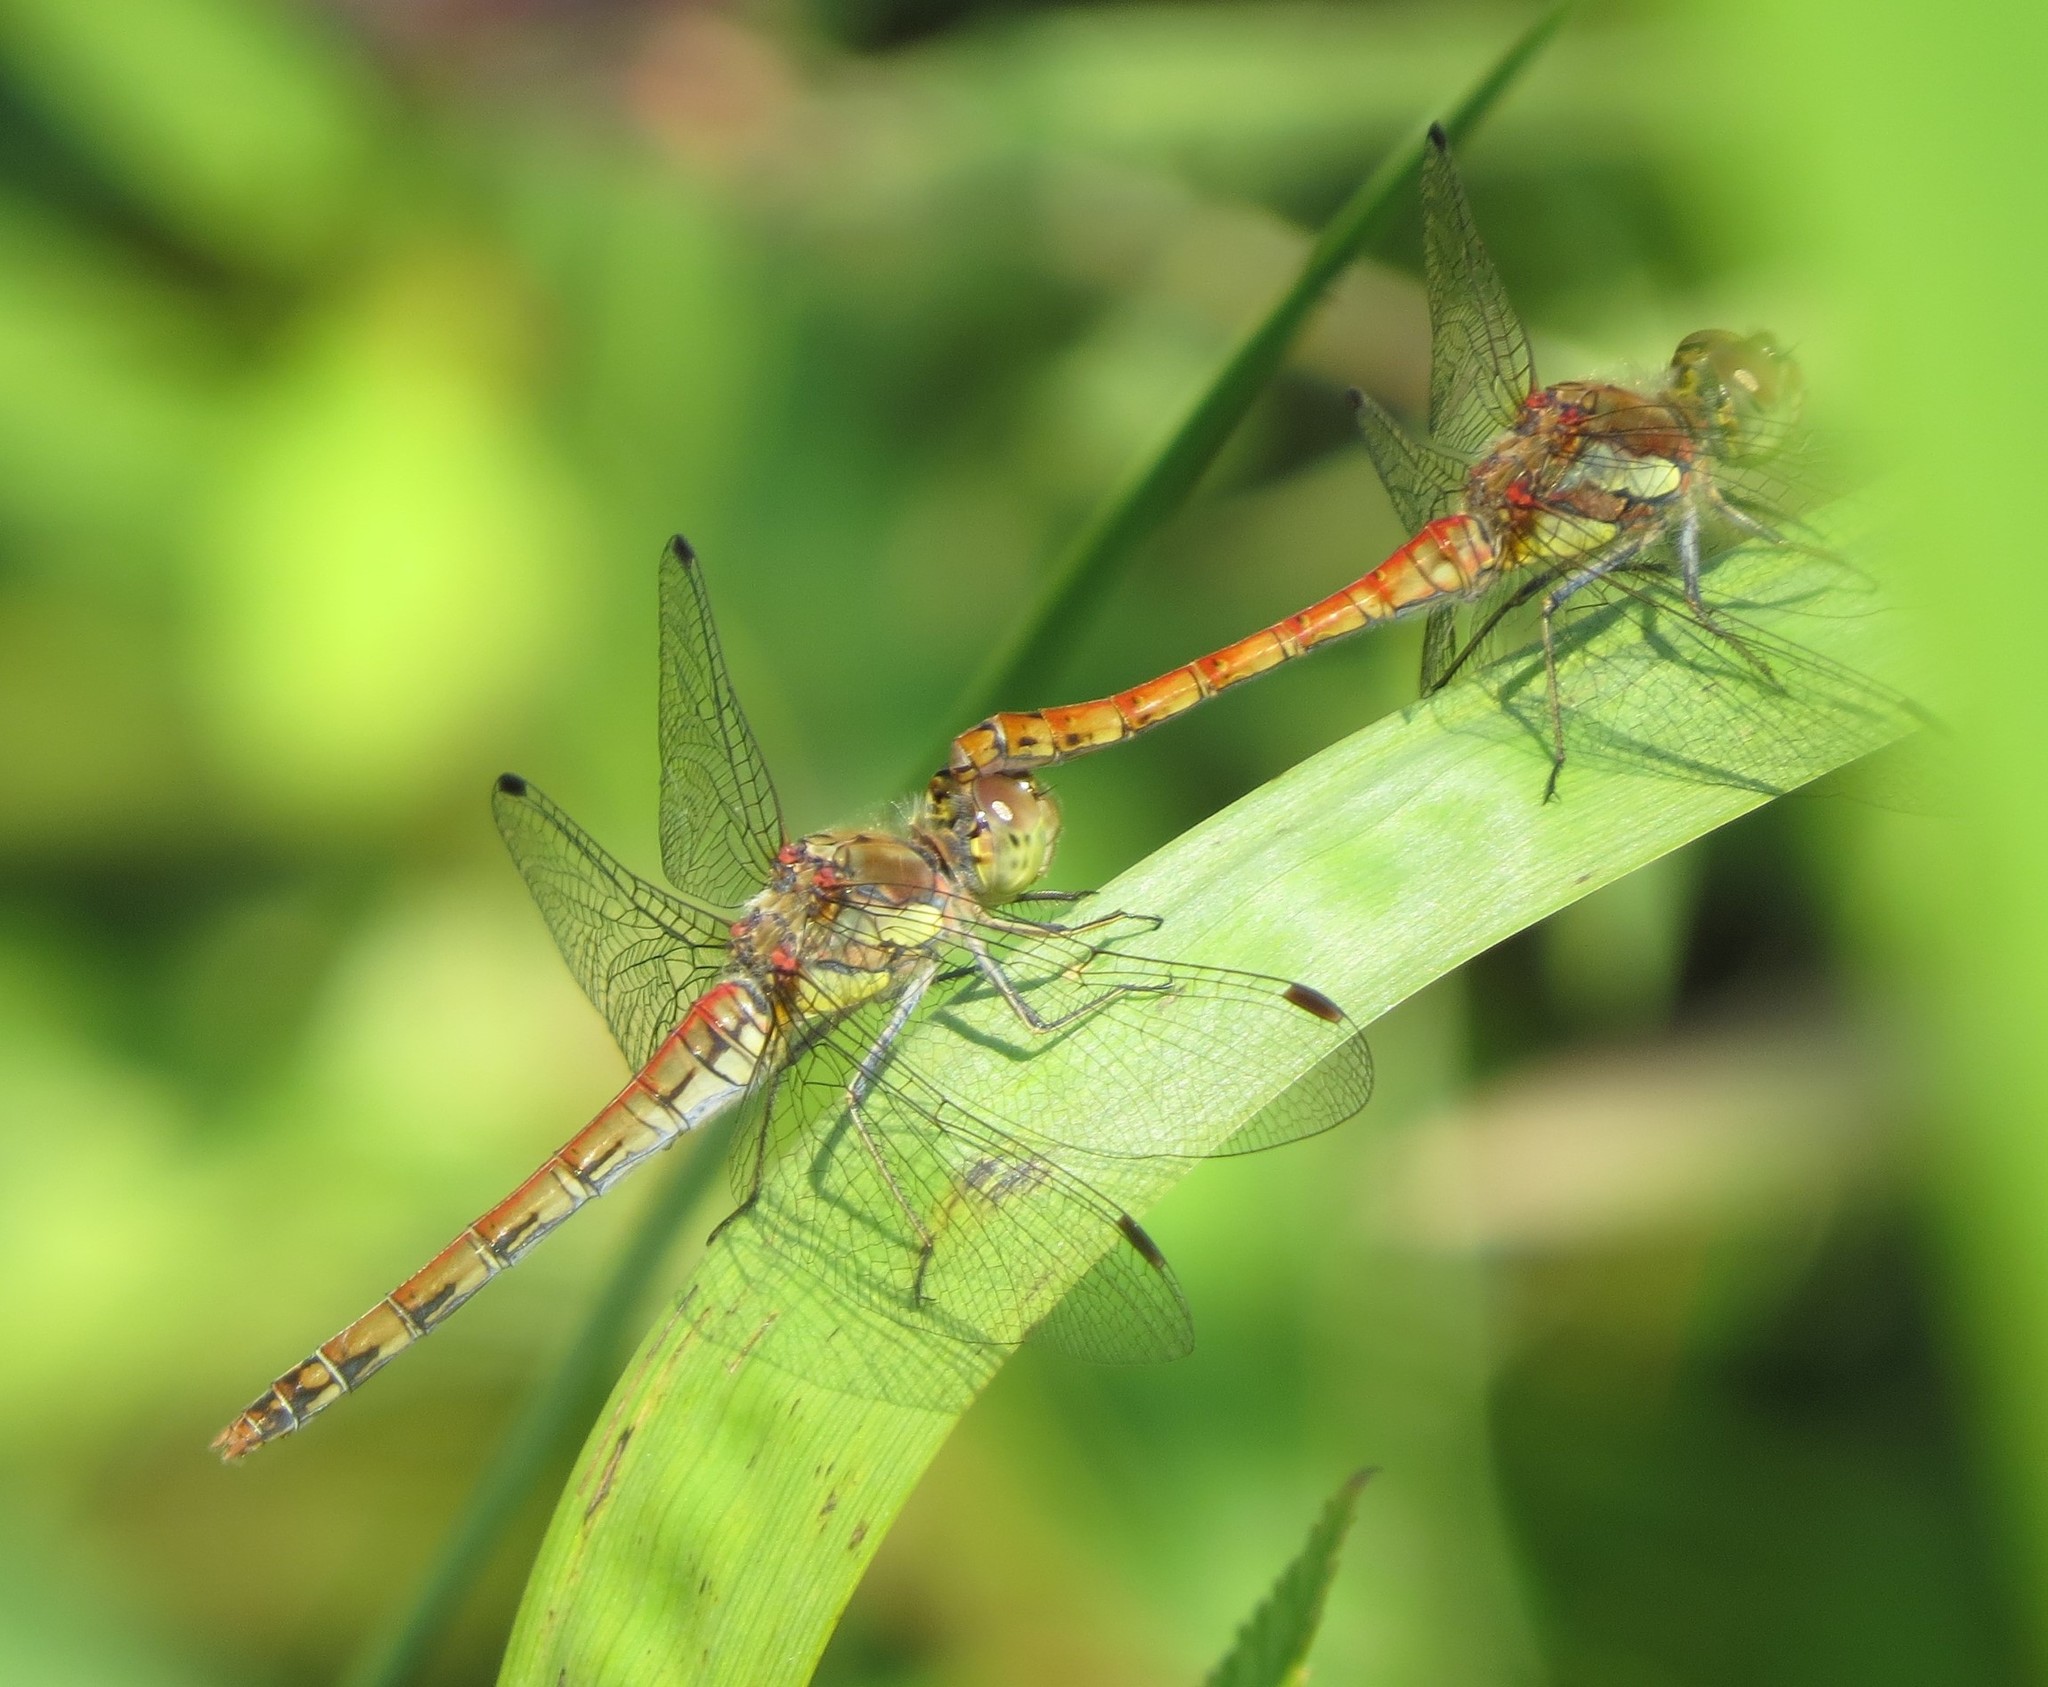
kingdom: Animalia
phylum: Arthropoda
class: Insecta
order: Odonata
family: Libellulidae
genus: Sympetrum
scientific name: Sympetrum striolatum
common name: Common darter
